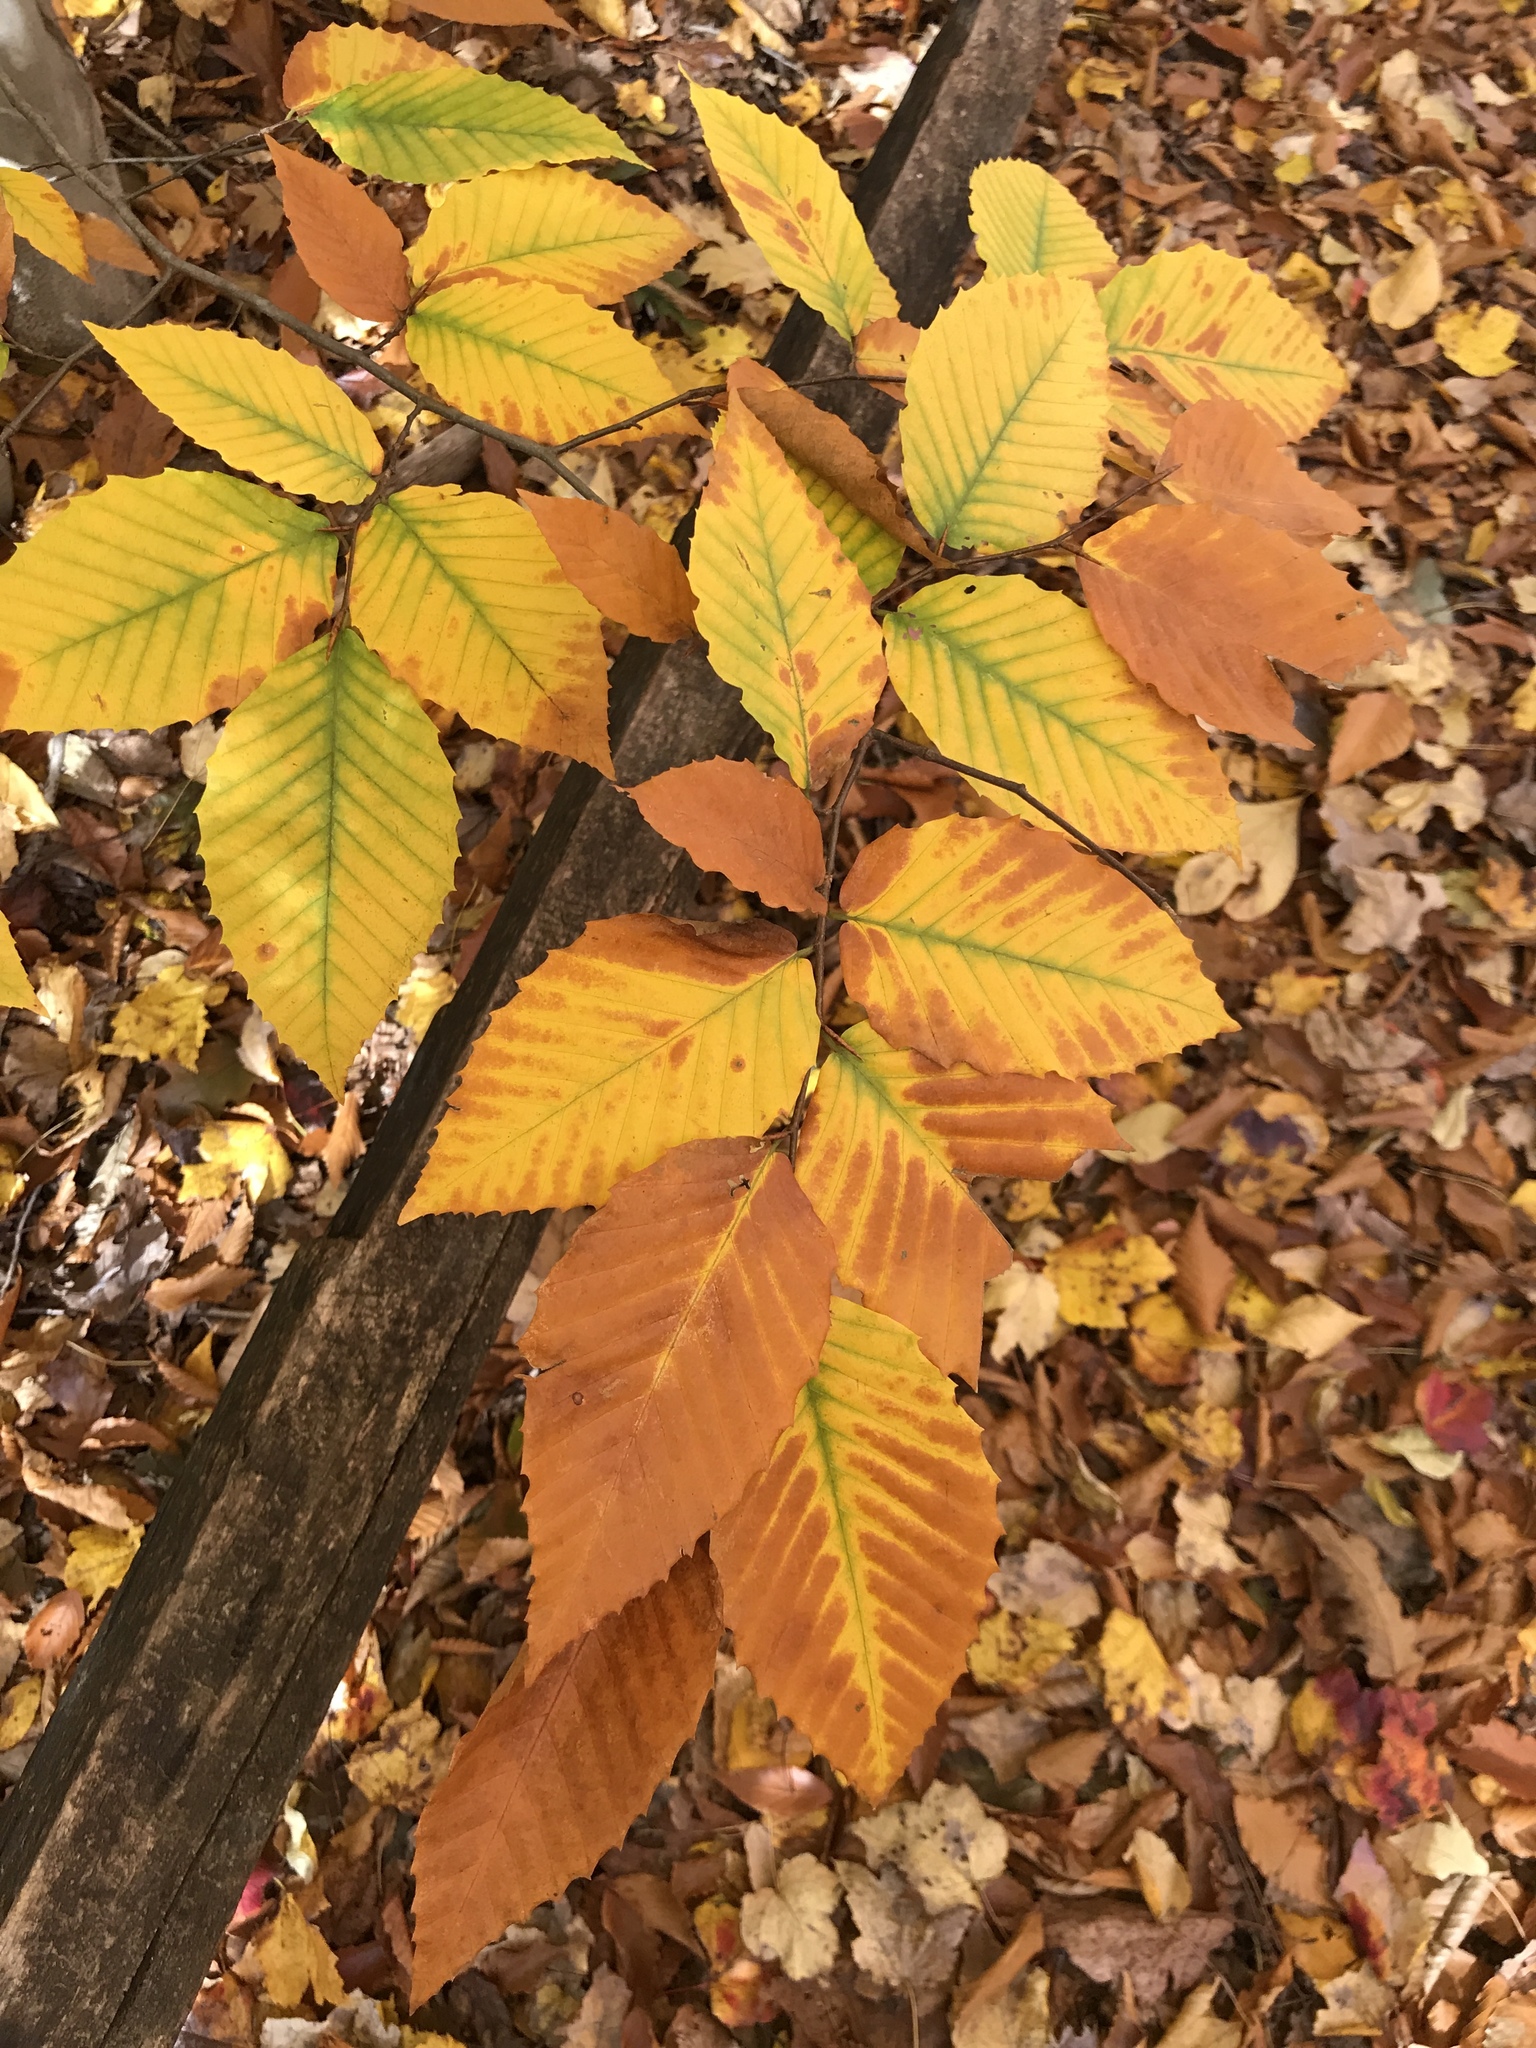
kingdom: Plantae
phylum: Tracheophyta
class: Magnoliopsida
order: Fagales
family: Fagaceae
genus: Fagus
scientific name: Fagus grandifolia
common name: American beech
